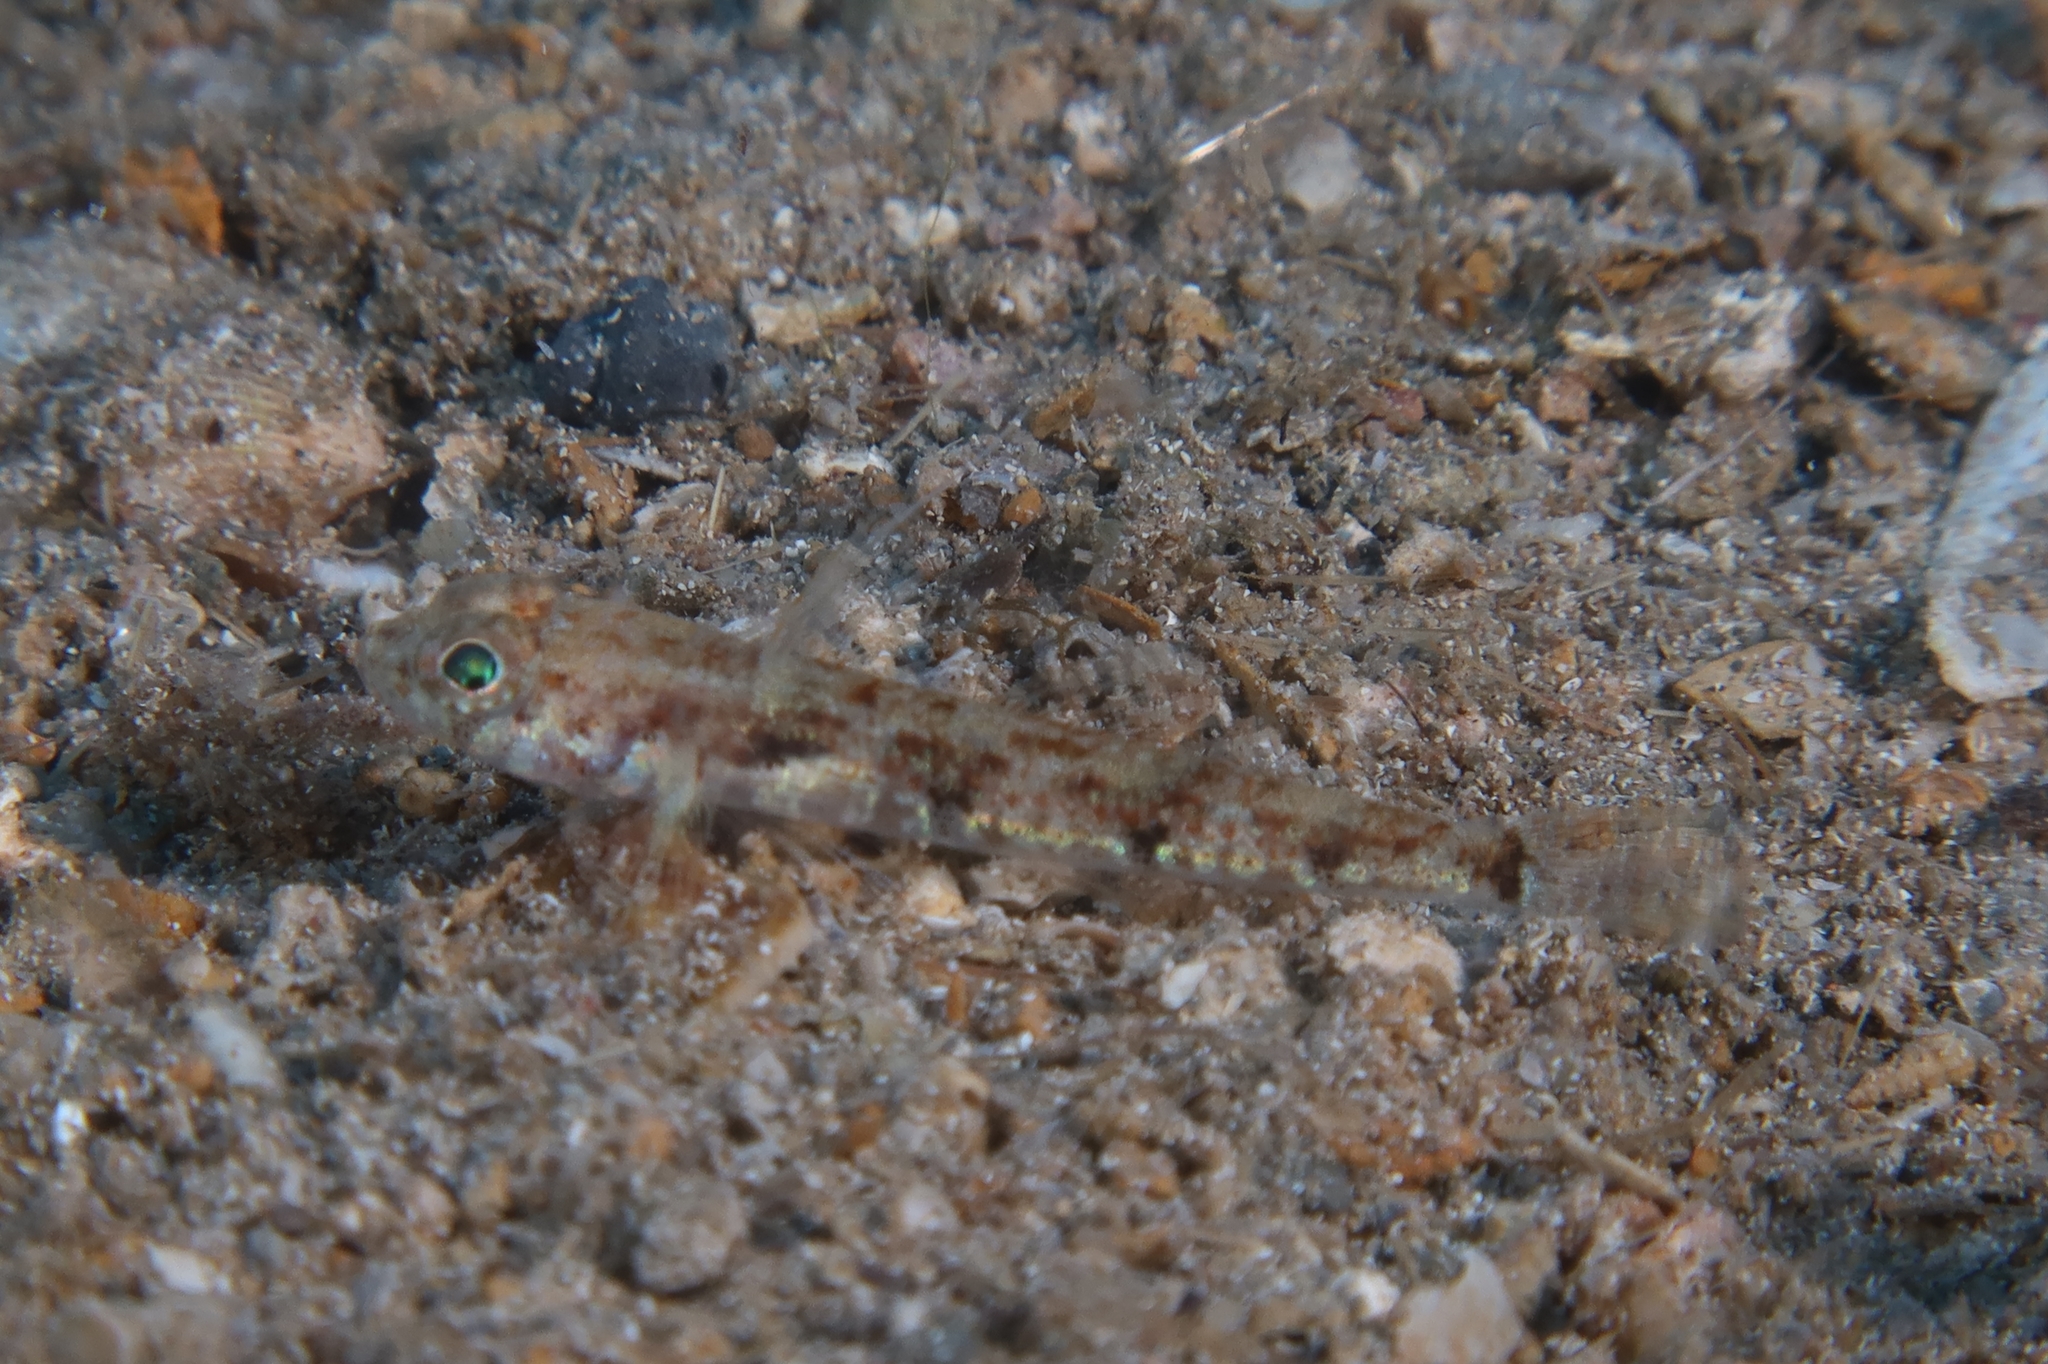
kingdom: Animalia
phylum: Chordata
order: Perciformes
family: Gobiidae
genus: Buenia
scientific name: Buenia massutii
